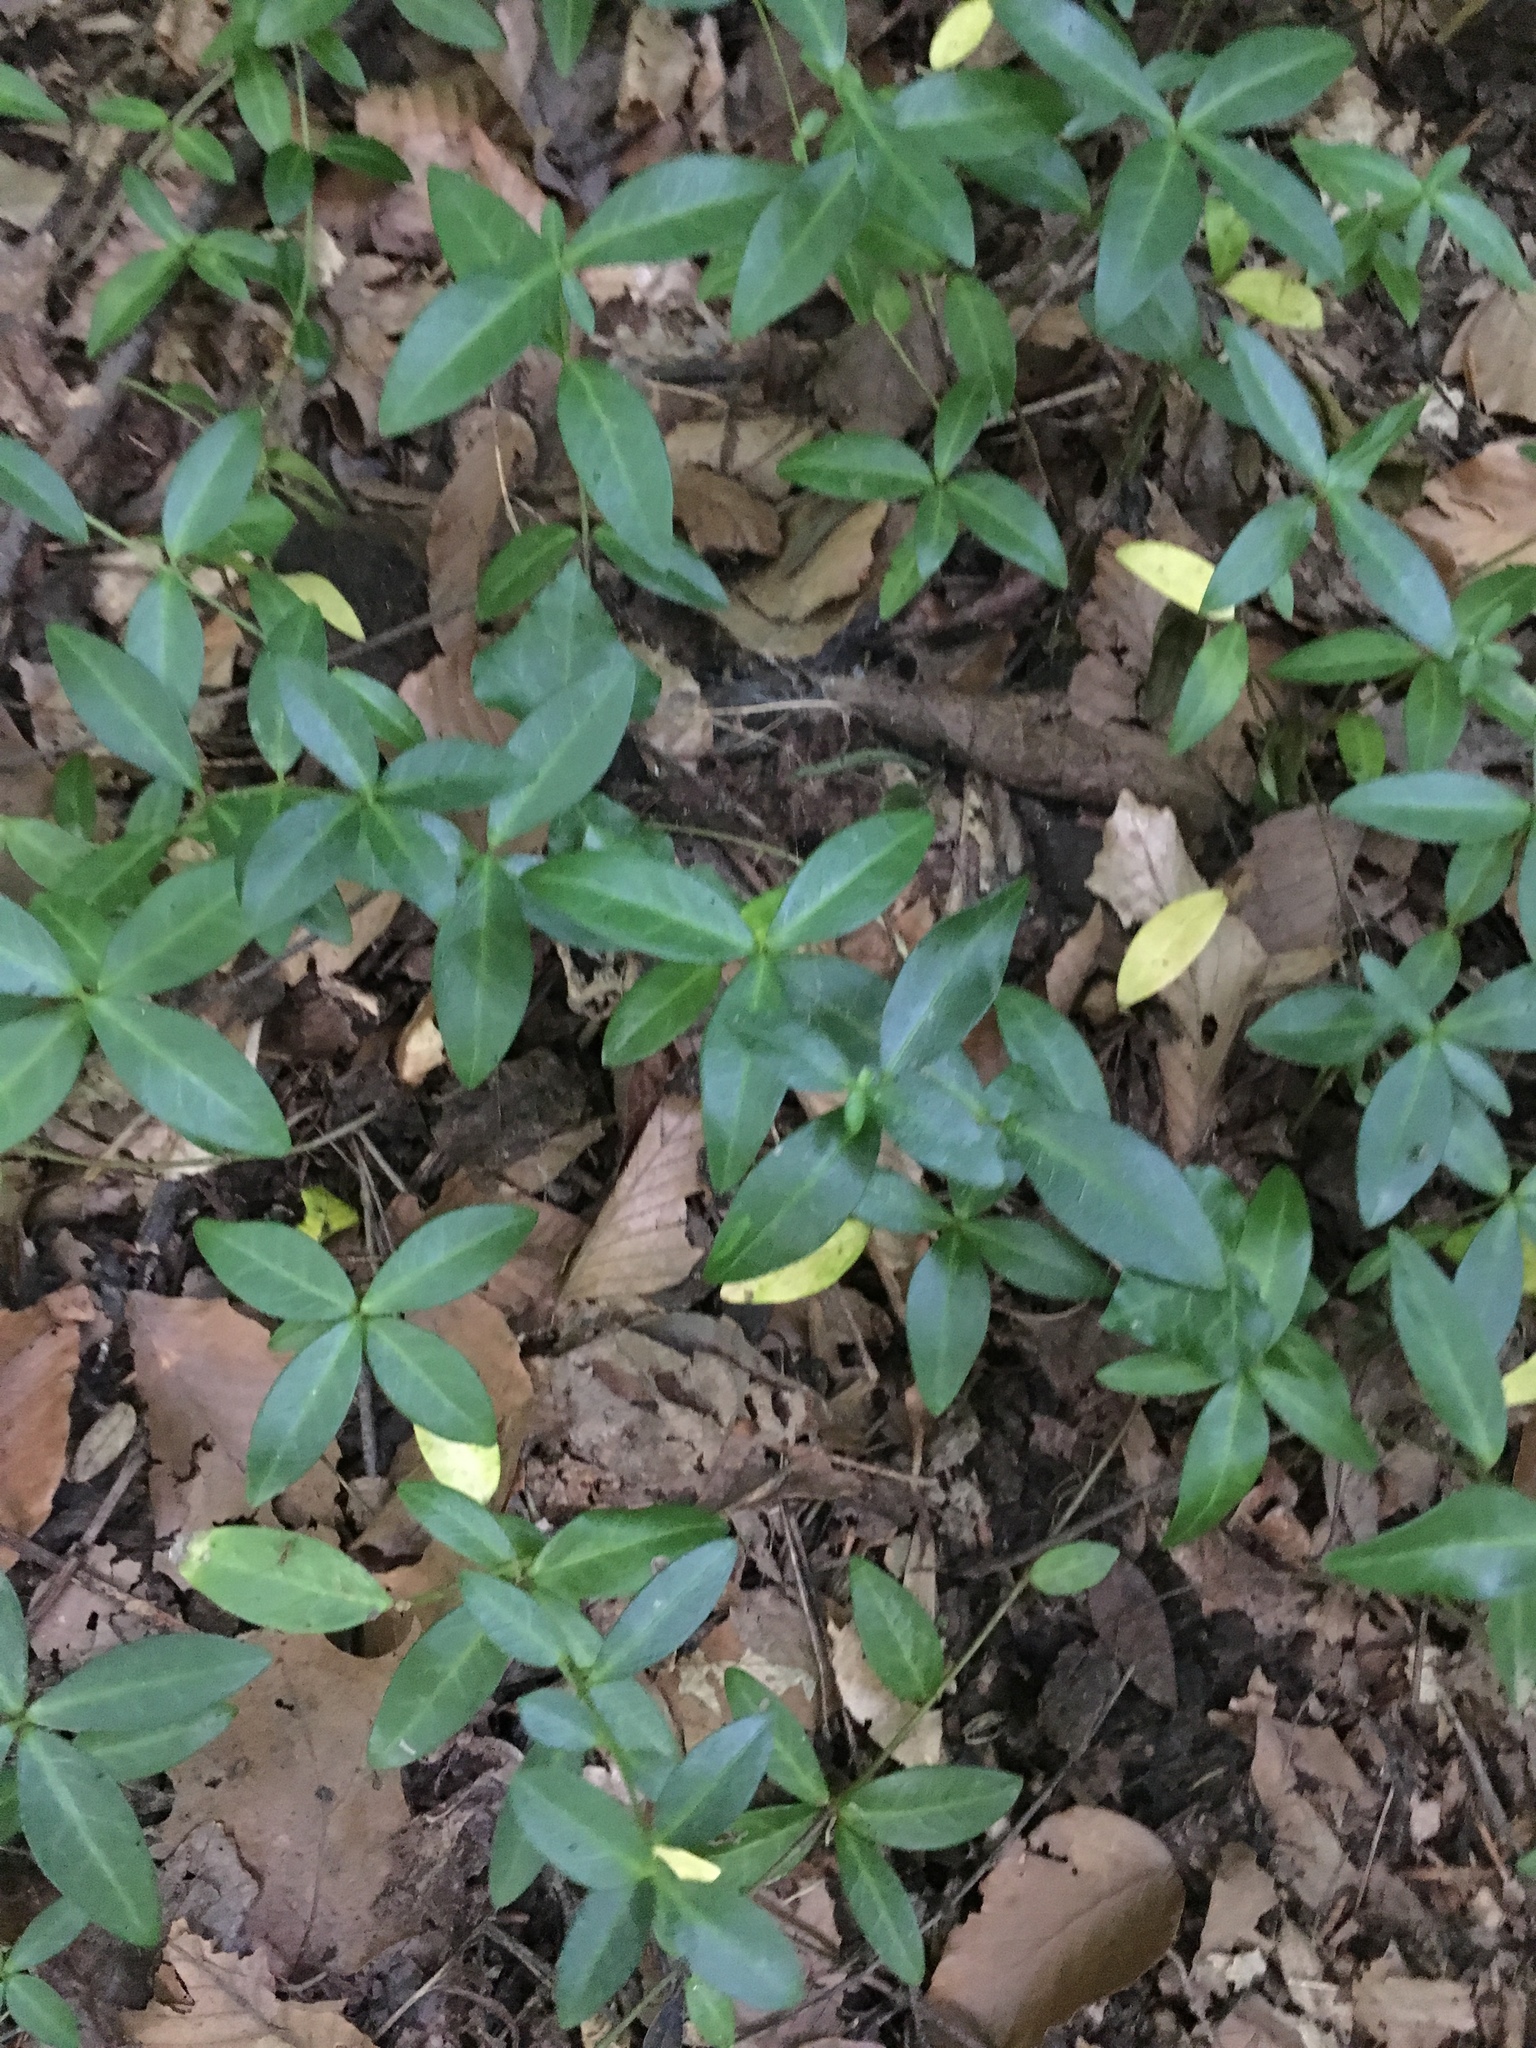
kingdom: Plantae
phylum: Tracheophyta
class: Magnoliopsida
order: Gentianales
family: Apocynaceae
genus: Vinca
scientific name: Vinca minor
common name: Lesser periwinkle
